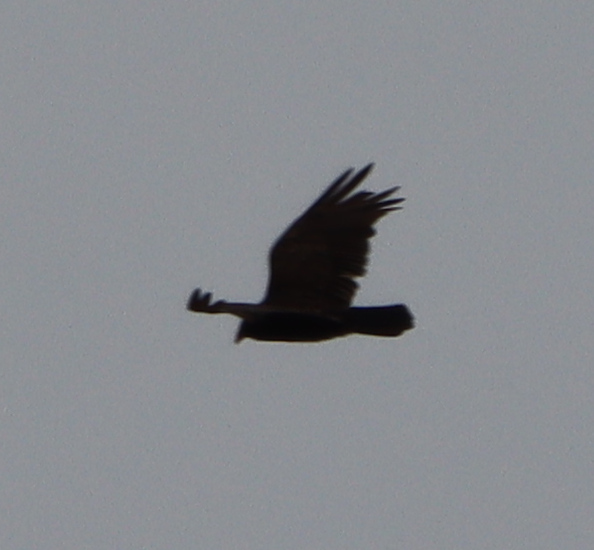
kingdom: Animalia
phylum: Chordata
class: Aves
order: Passeriformes
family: Corvidae
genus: Corvus
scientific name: Corvus brachyrhynchos
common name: American crow
